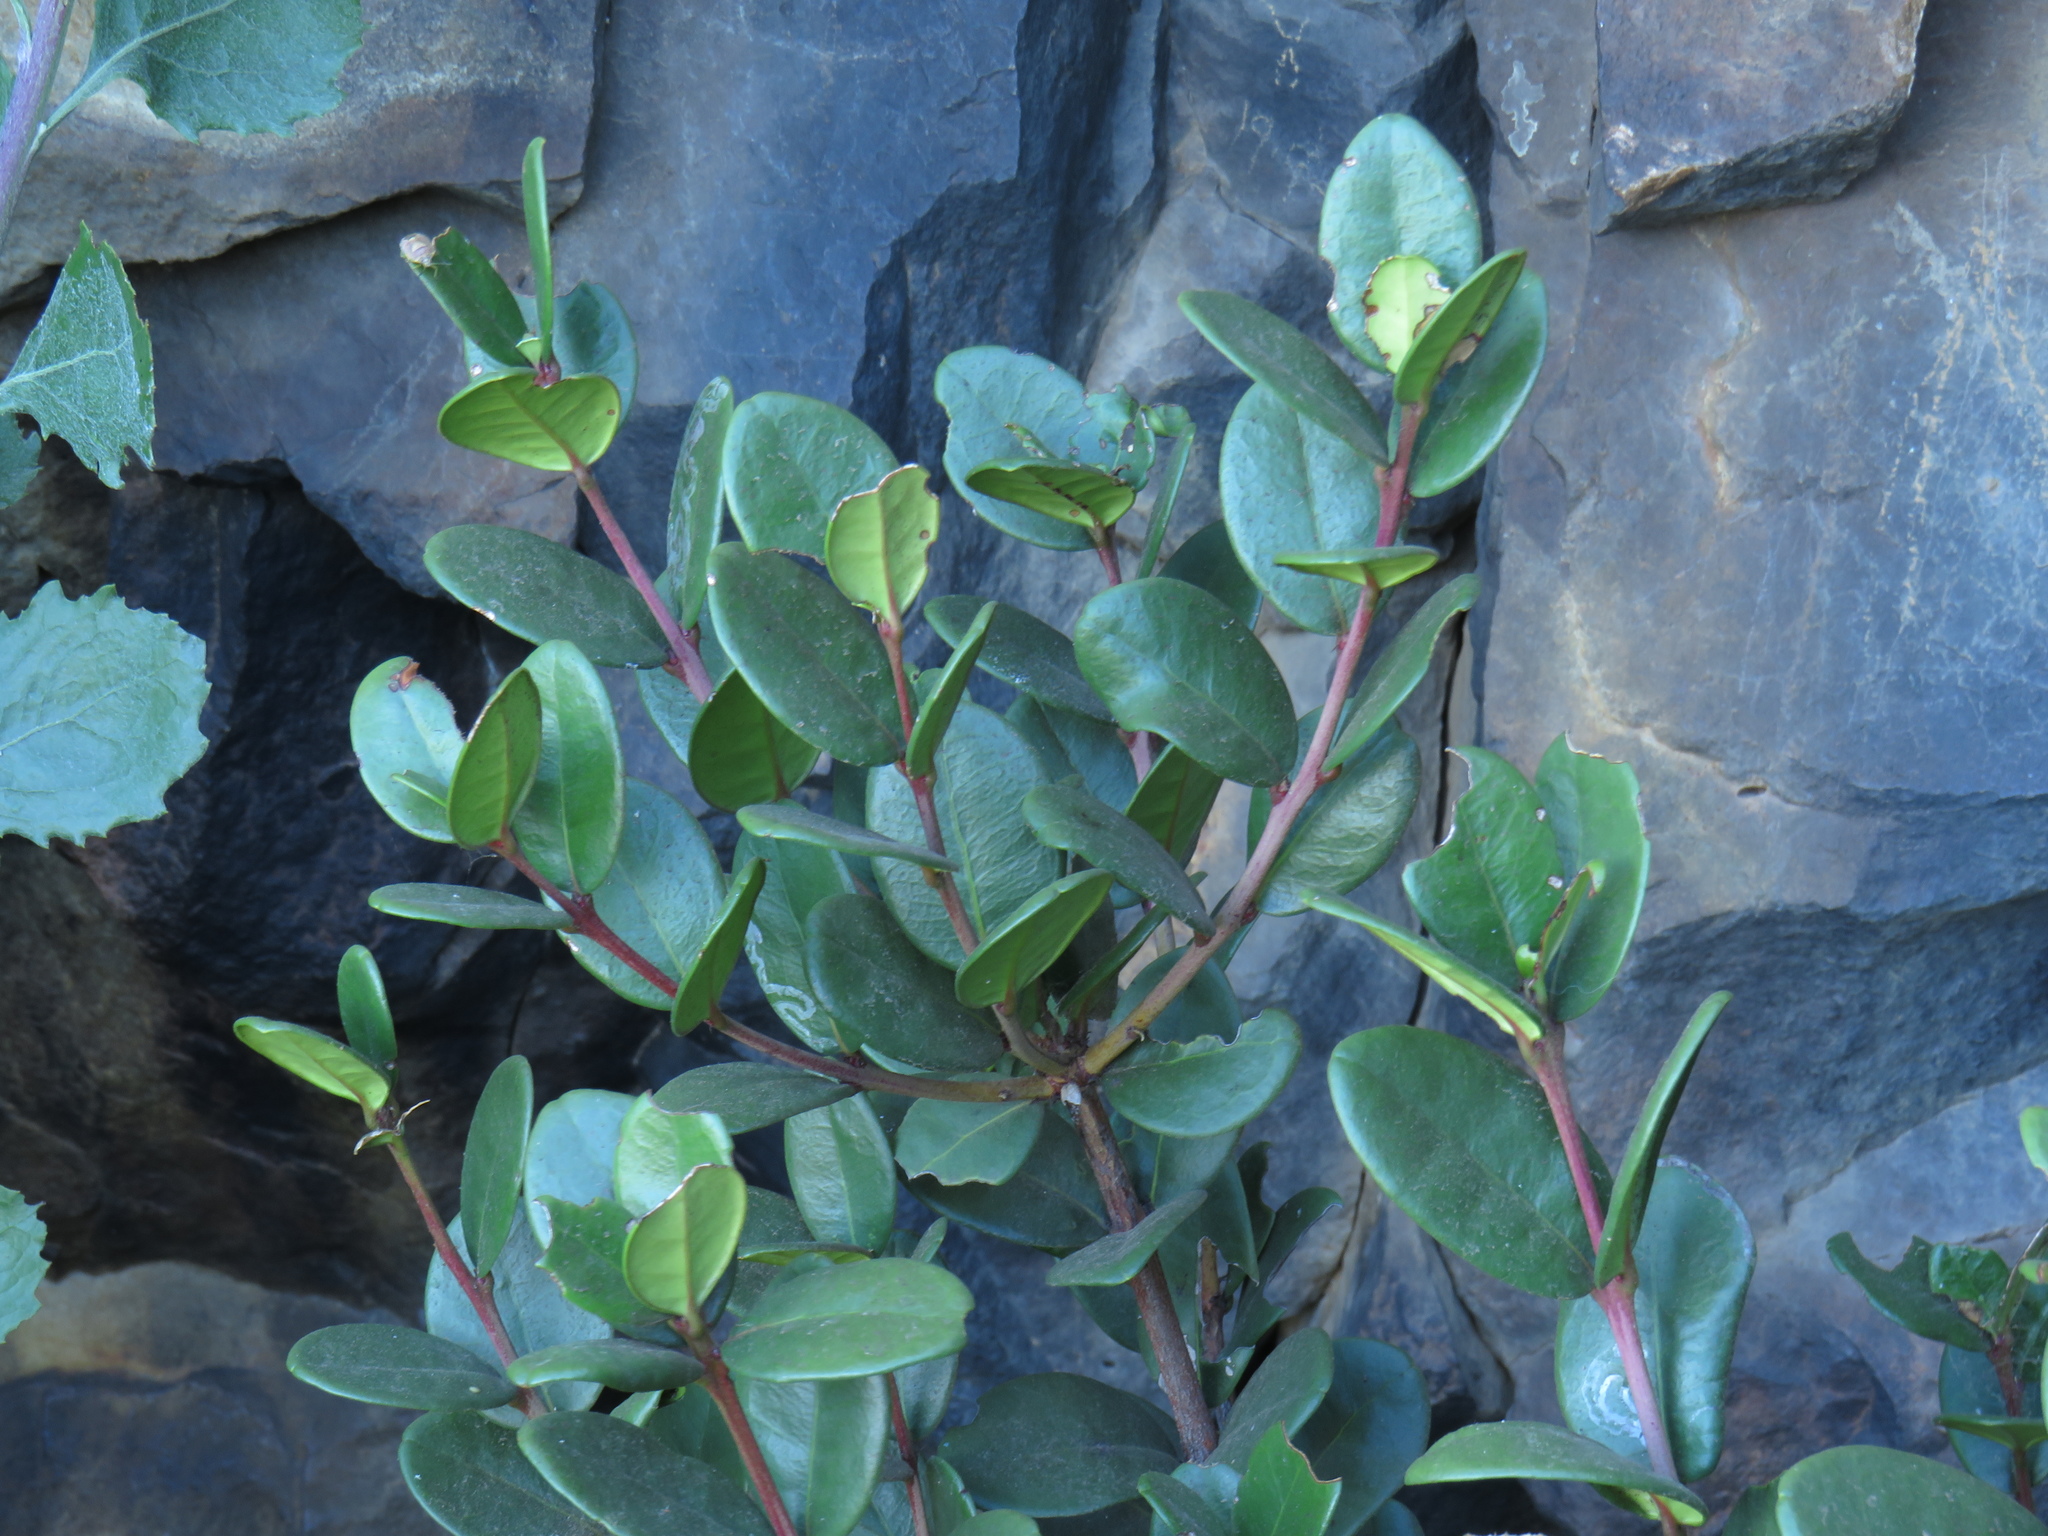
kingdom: Plantae
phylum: Tracheophyta
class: Magnoliopsida
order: Celastrales
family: Celastraceae
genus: Maurocenia
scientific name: Maurocenia frangula
